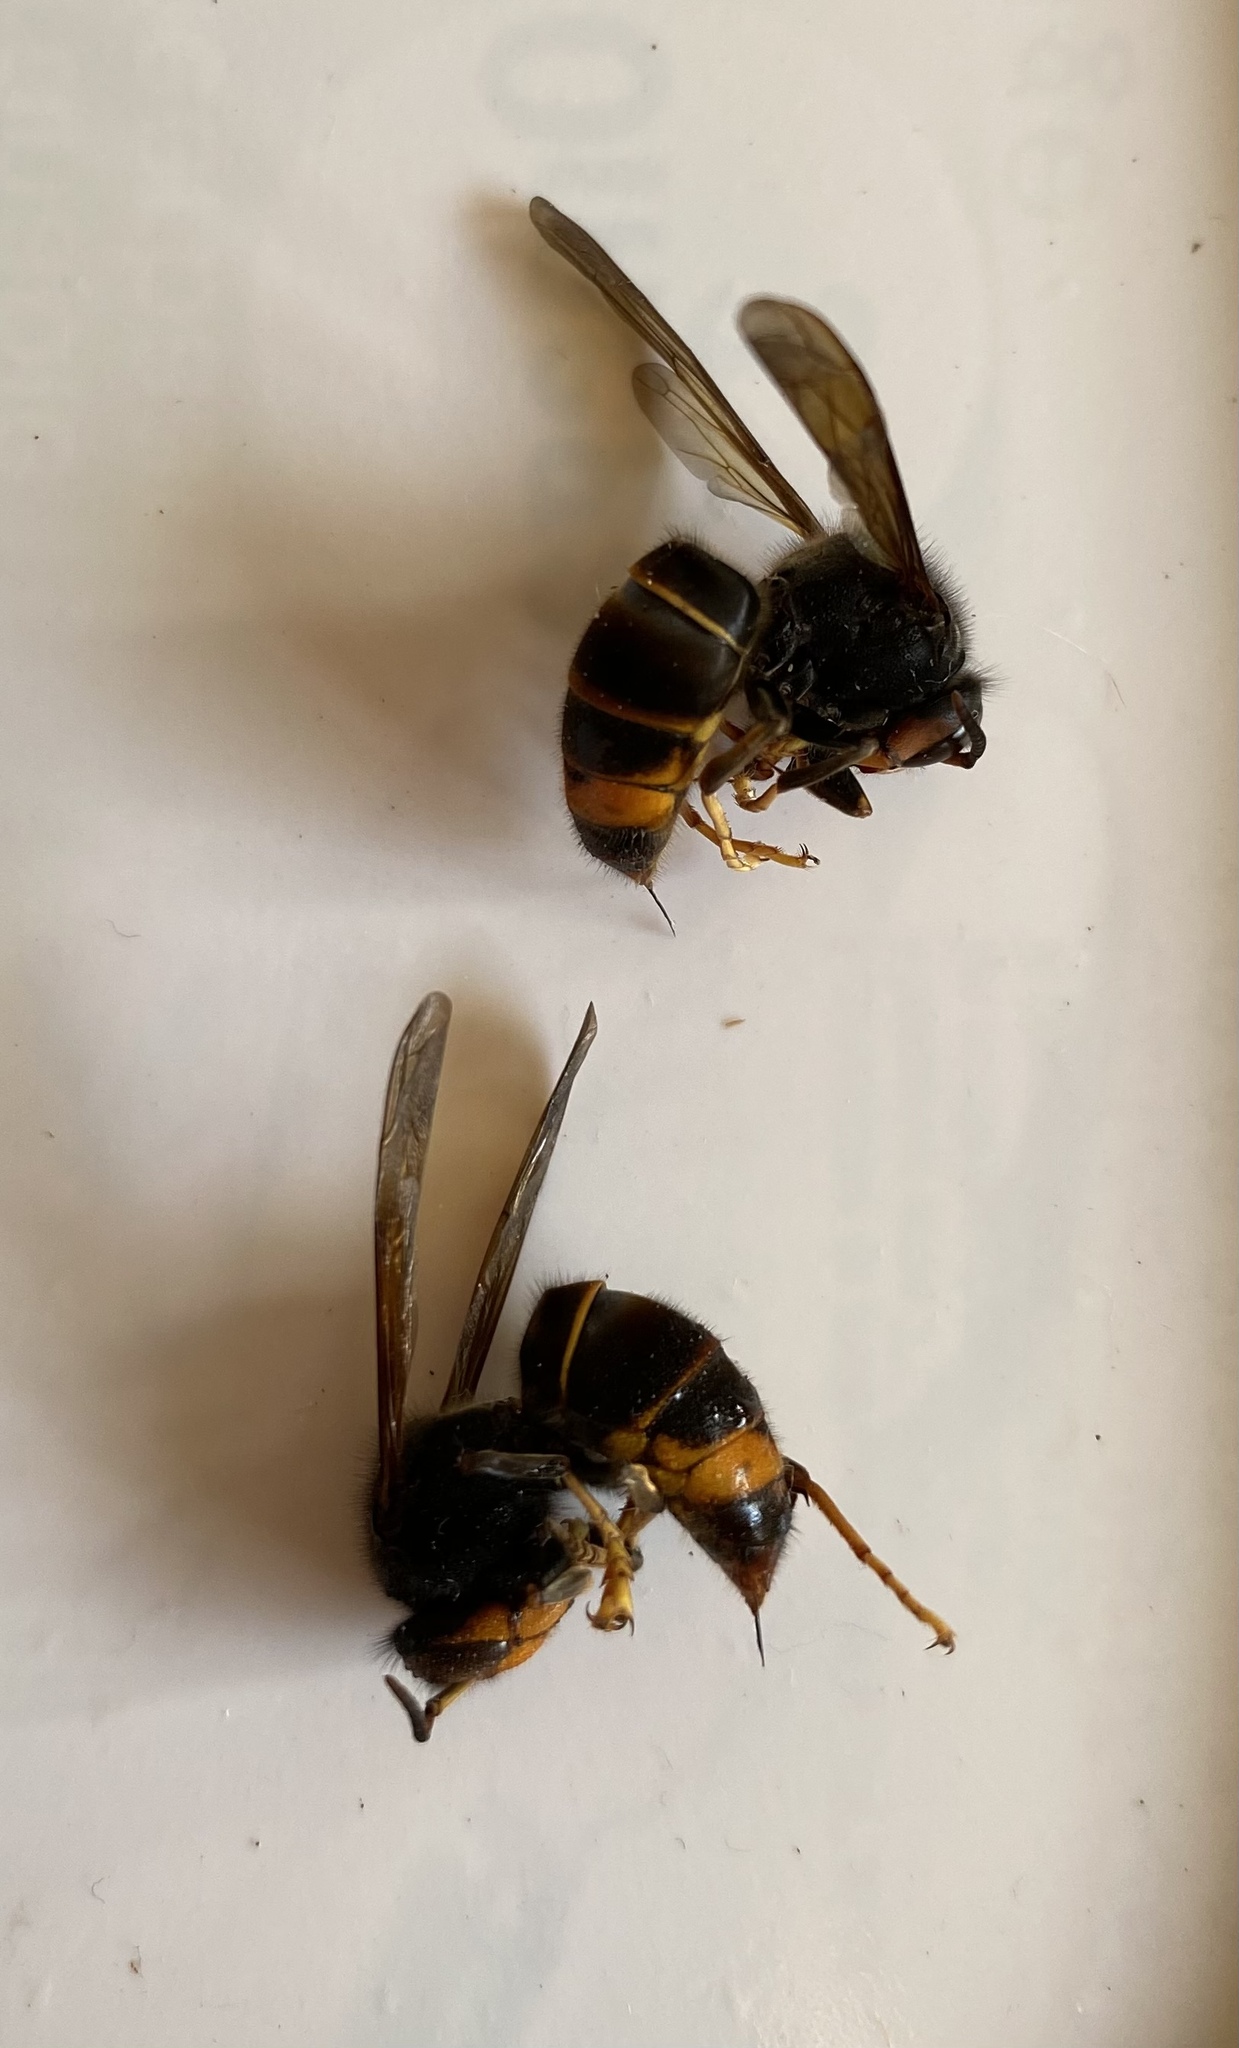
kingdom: Animalia
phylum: Arthropoda
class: Insecta
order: Hymenoptera
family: Vespidae
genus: Vespa
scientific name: Vespa velutina
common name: Asian hornet
